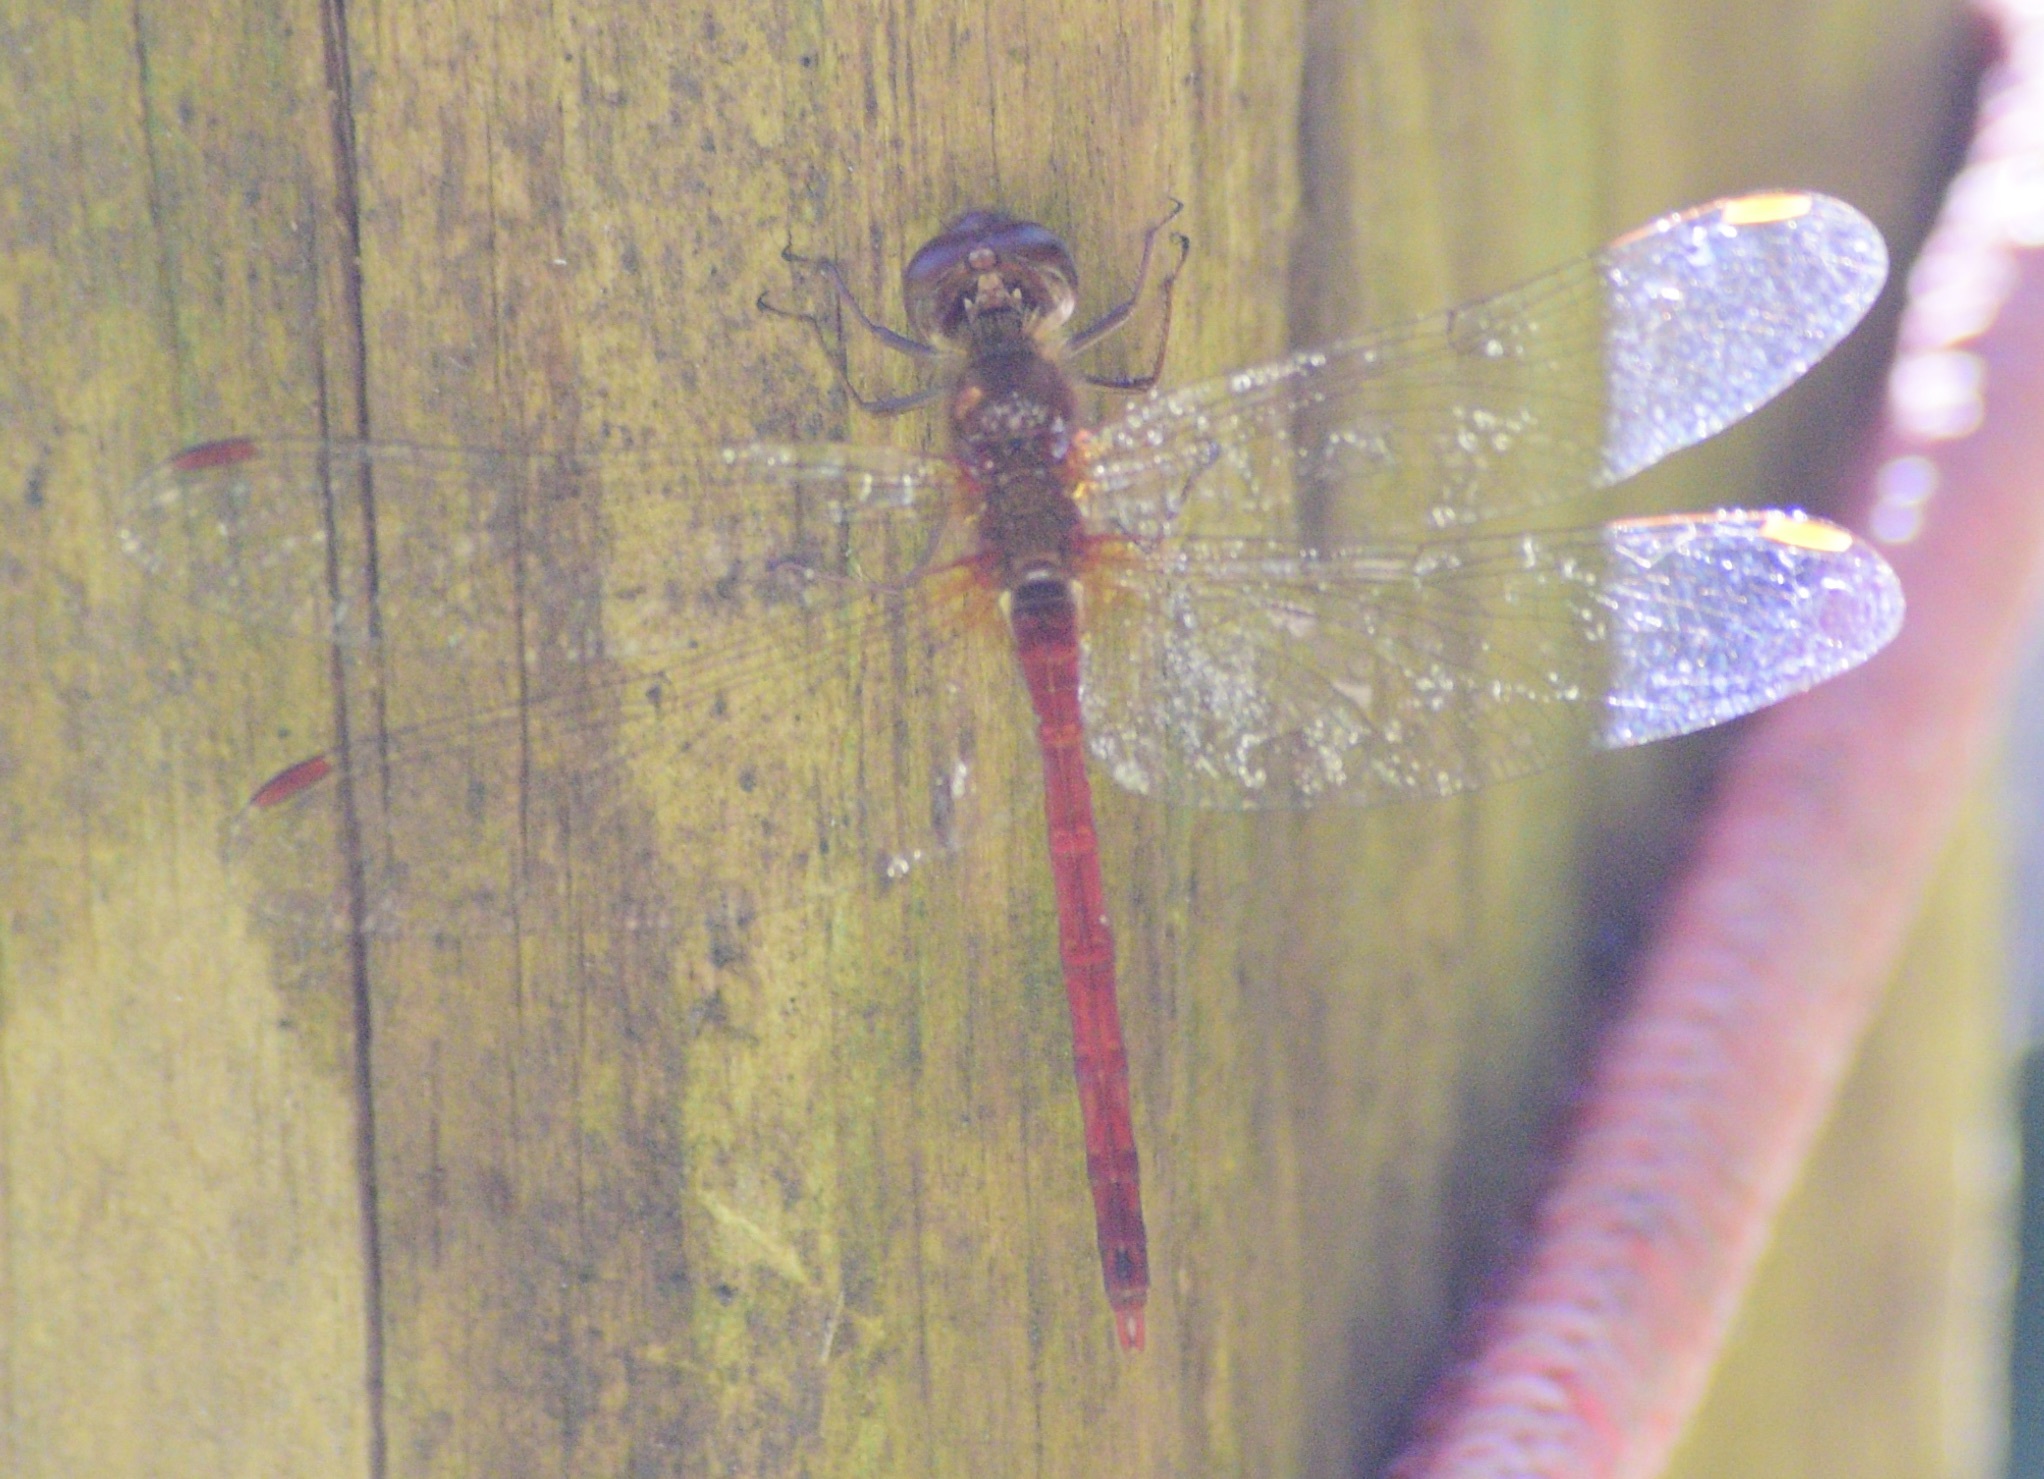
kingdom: Animalia
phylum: Arthropoda
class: Insecta
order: Odonata
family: Libellulidae
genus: Sympetrum
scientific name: Sympetrum vicinum
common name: Autumn meadowhawk
